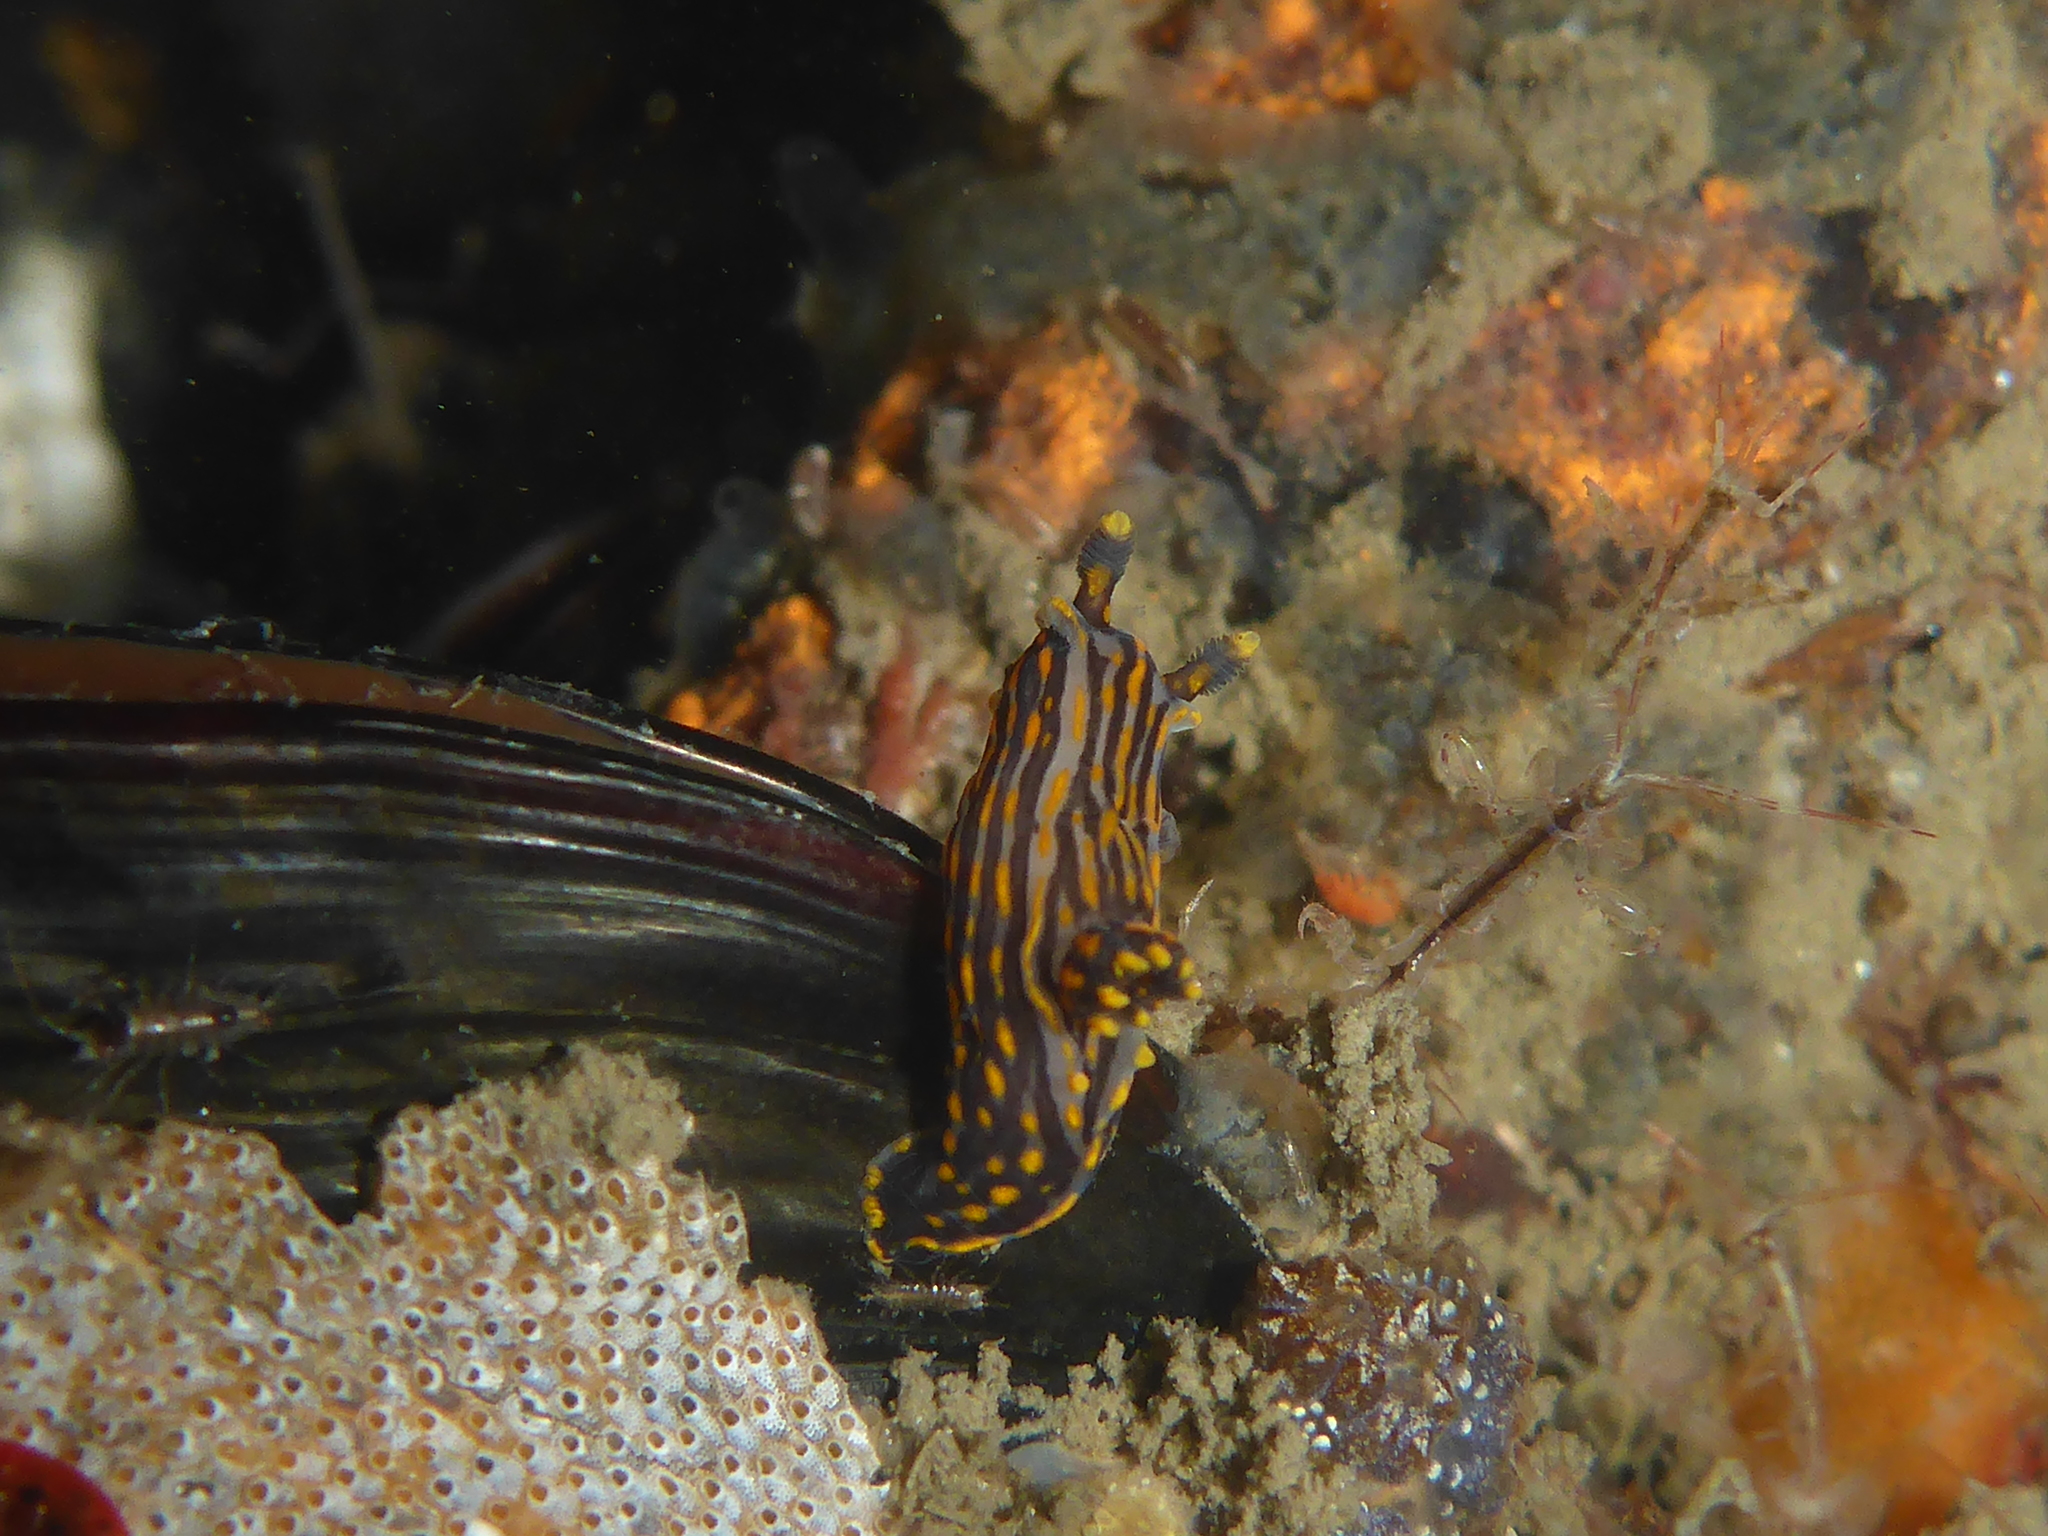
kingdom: Animalia
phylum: Mollusca
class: Gastropoda
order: Nudibranchia
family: Polyceridae
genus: Polycera
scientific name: Polycera atra
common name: Orange-spike polycera
